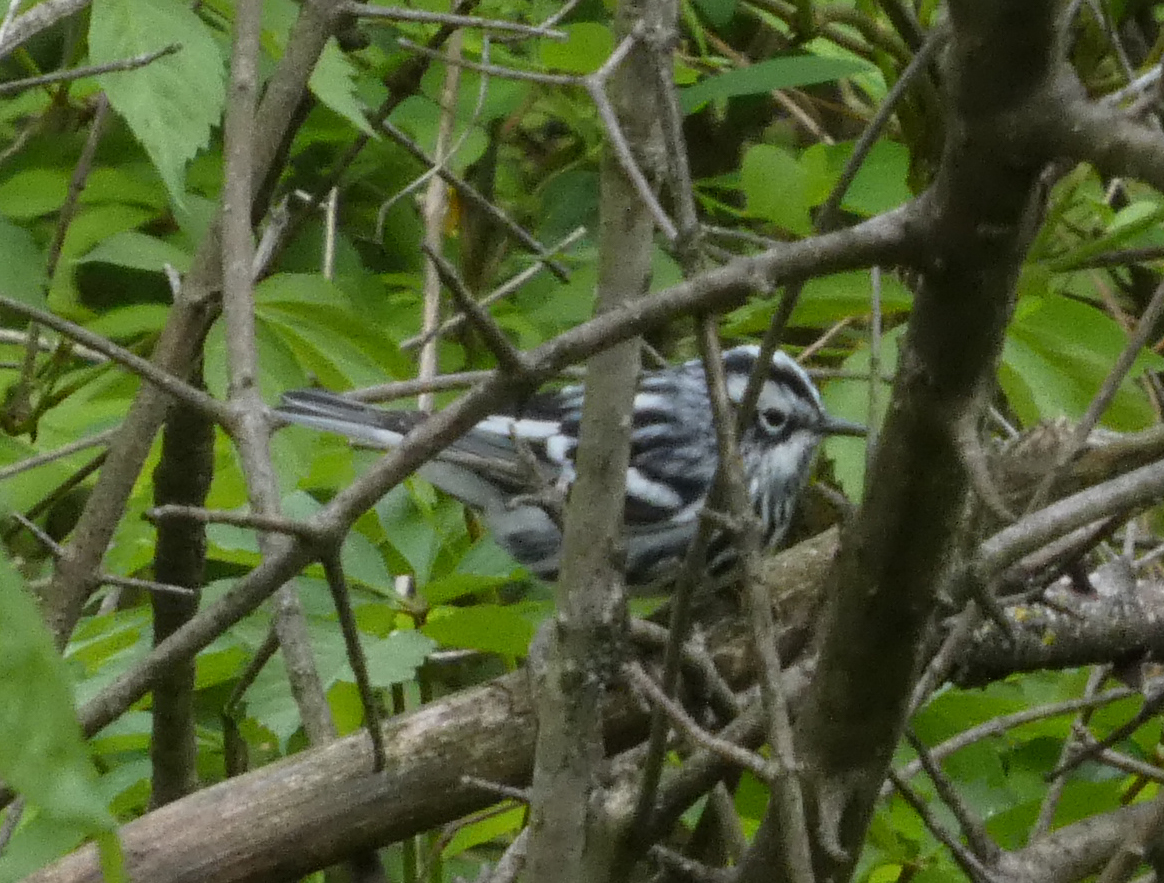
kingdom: Animalia
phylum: Chordata
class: Aves
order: Passeriformes
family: Parulidae
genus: Mniotilta
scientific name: Mniotilta varia
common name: Black-and-white warbler
